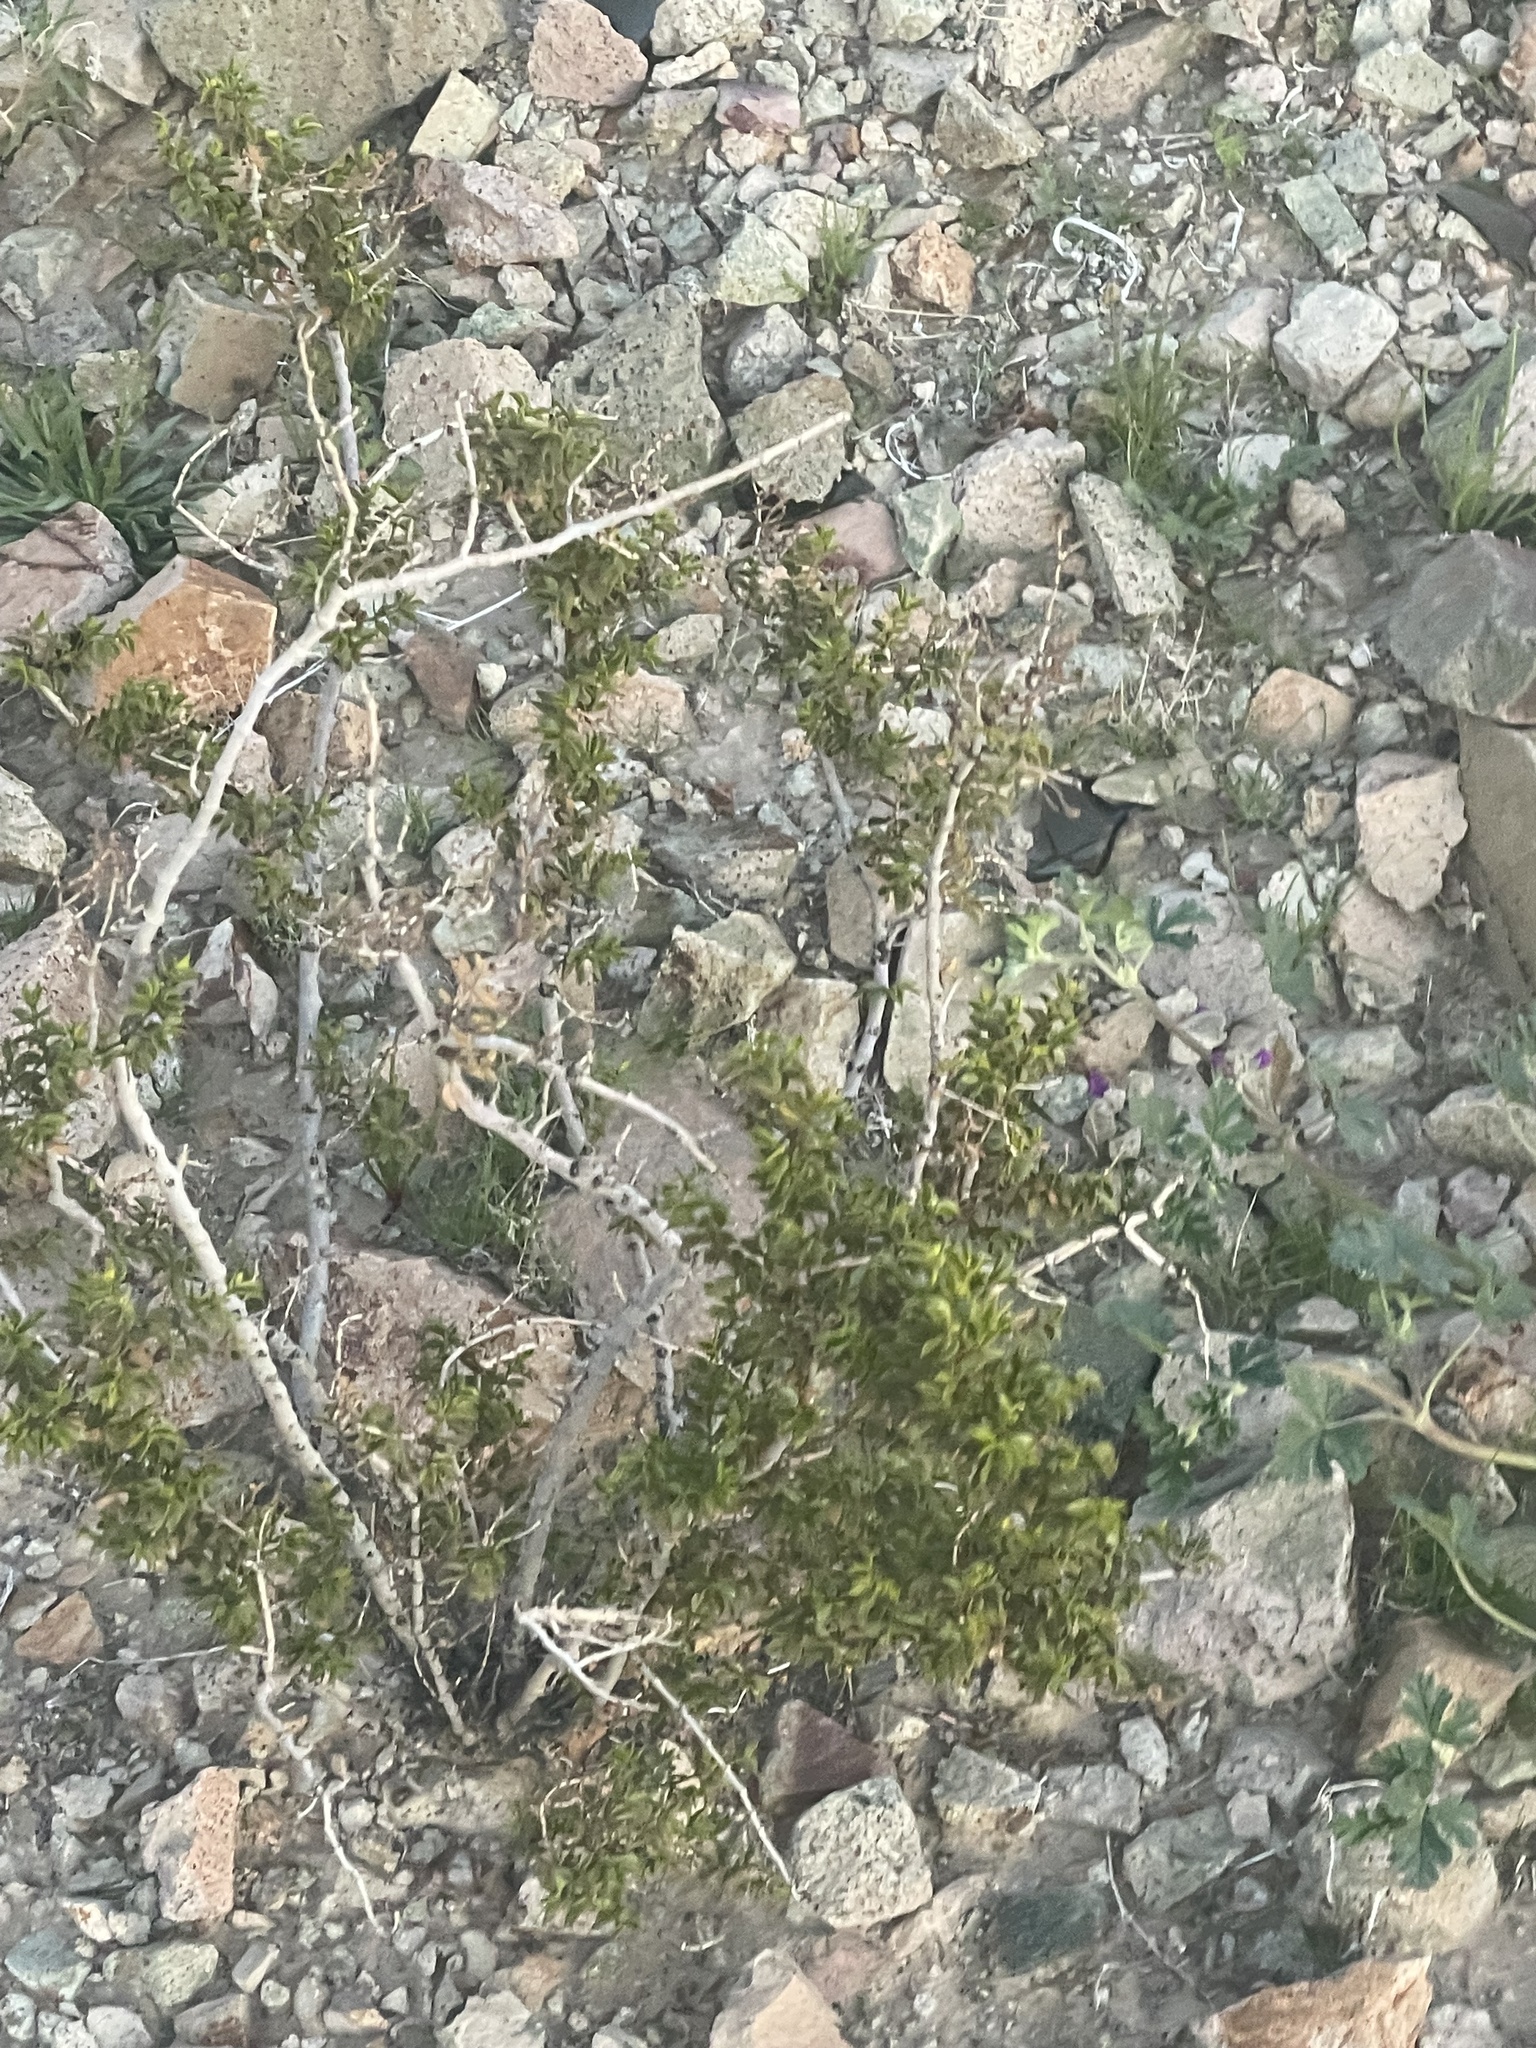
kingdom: Plantae
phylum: Tracheophyta
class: Magnoliopsida
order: Zygophyllales
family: Zygophyllaceae
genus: Larrea
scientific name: Larrea tridentata
